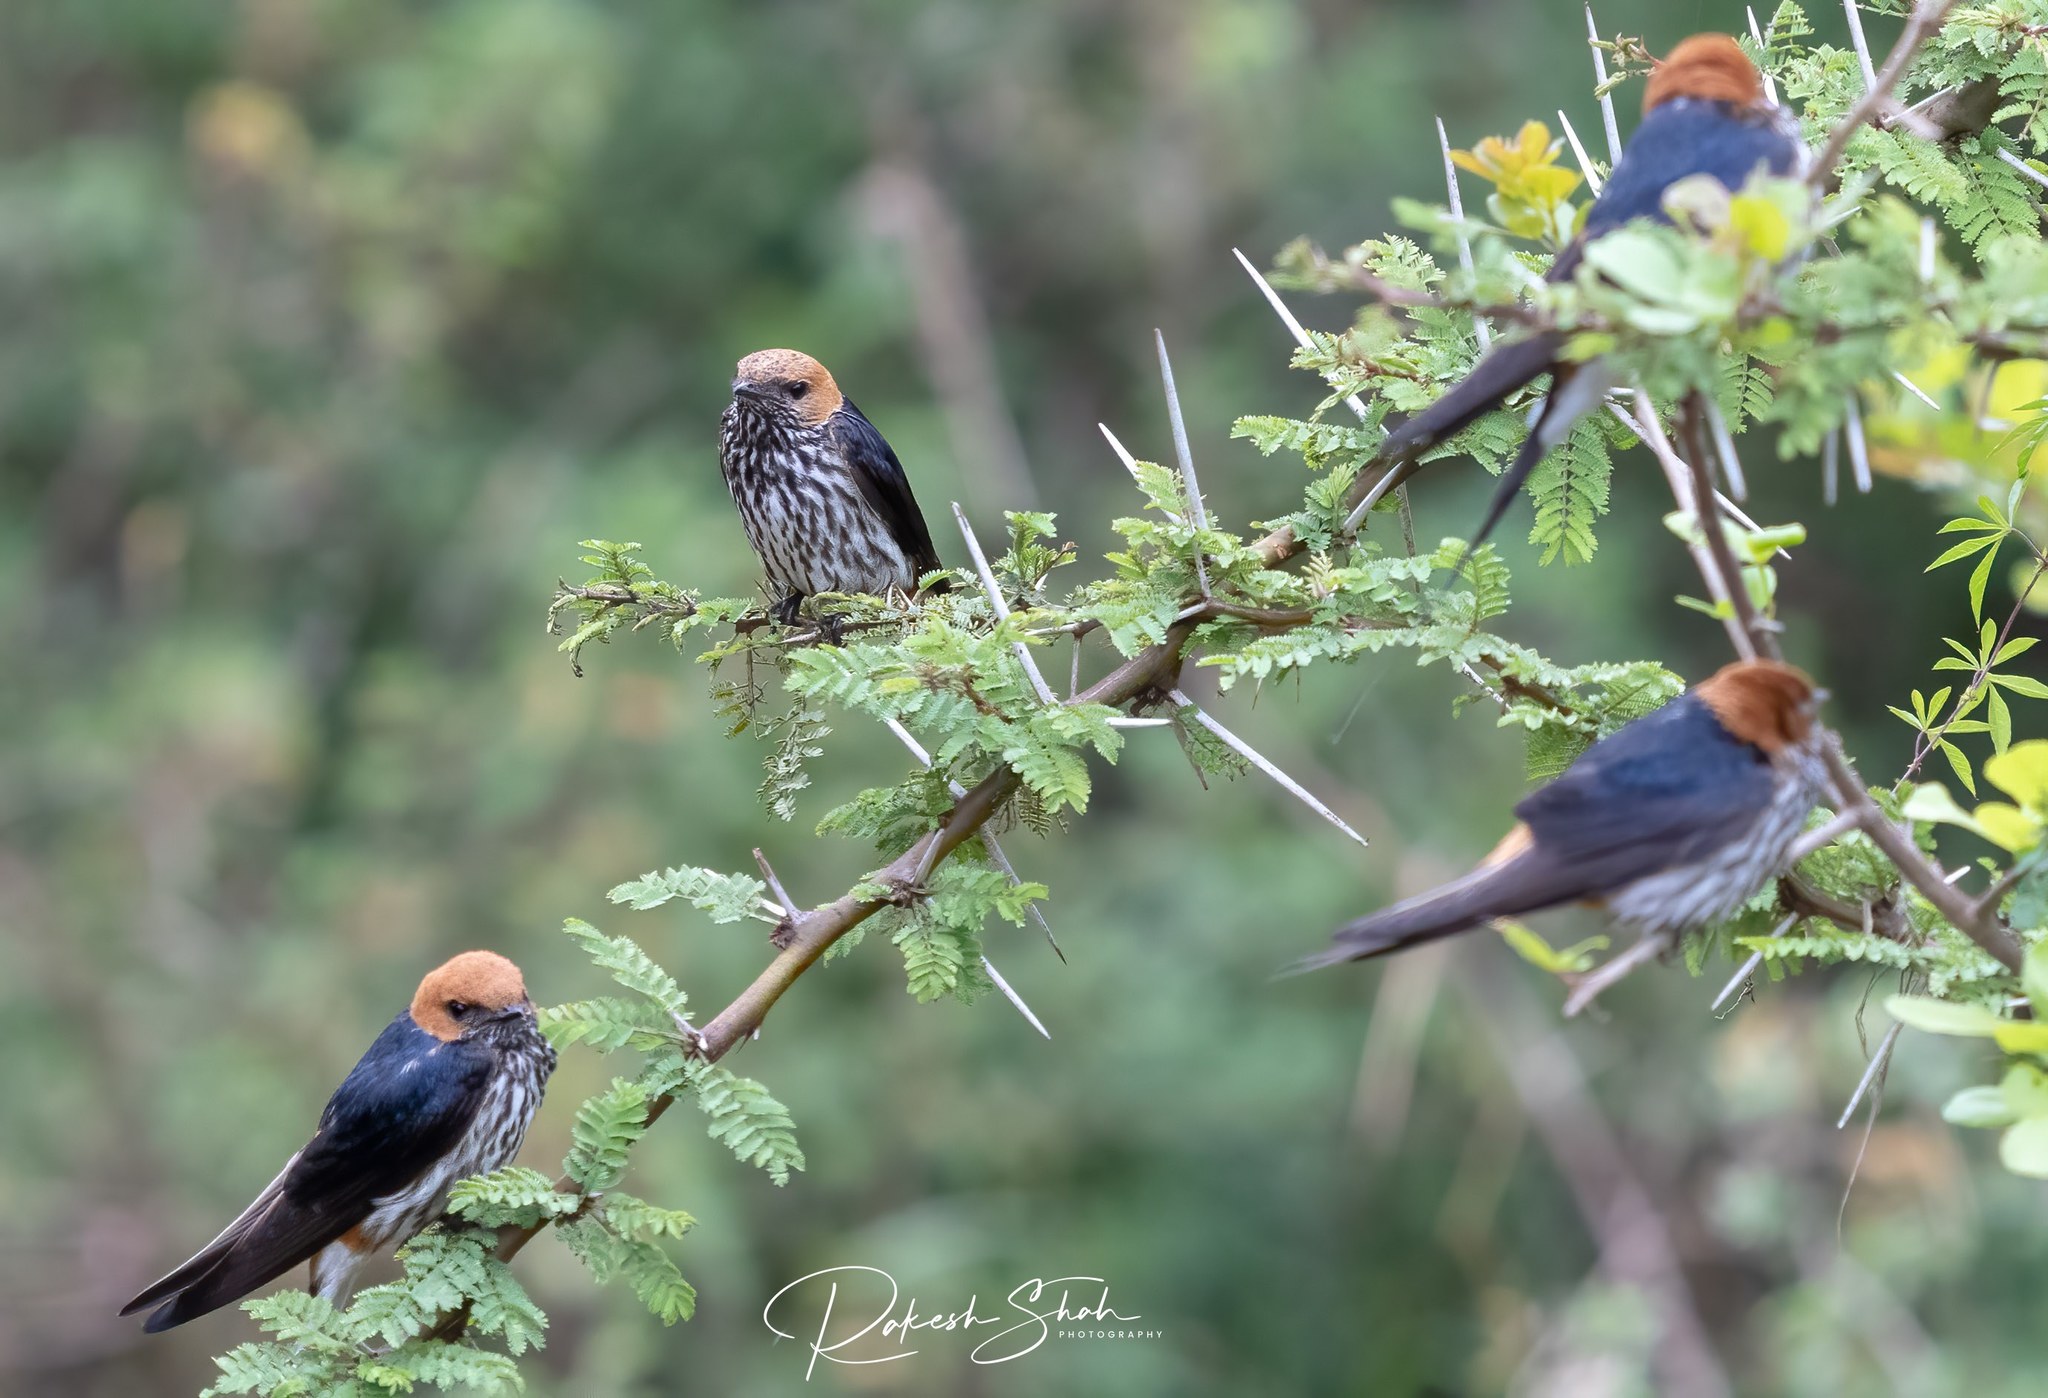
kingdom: Animalia
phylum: Chordata
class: Aves
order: Passeriformes
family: Hirundinidae
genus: Cecropis
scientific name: Cecropis abyssinica
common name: Lesser striped-swallow
